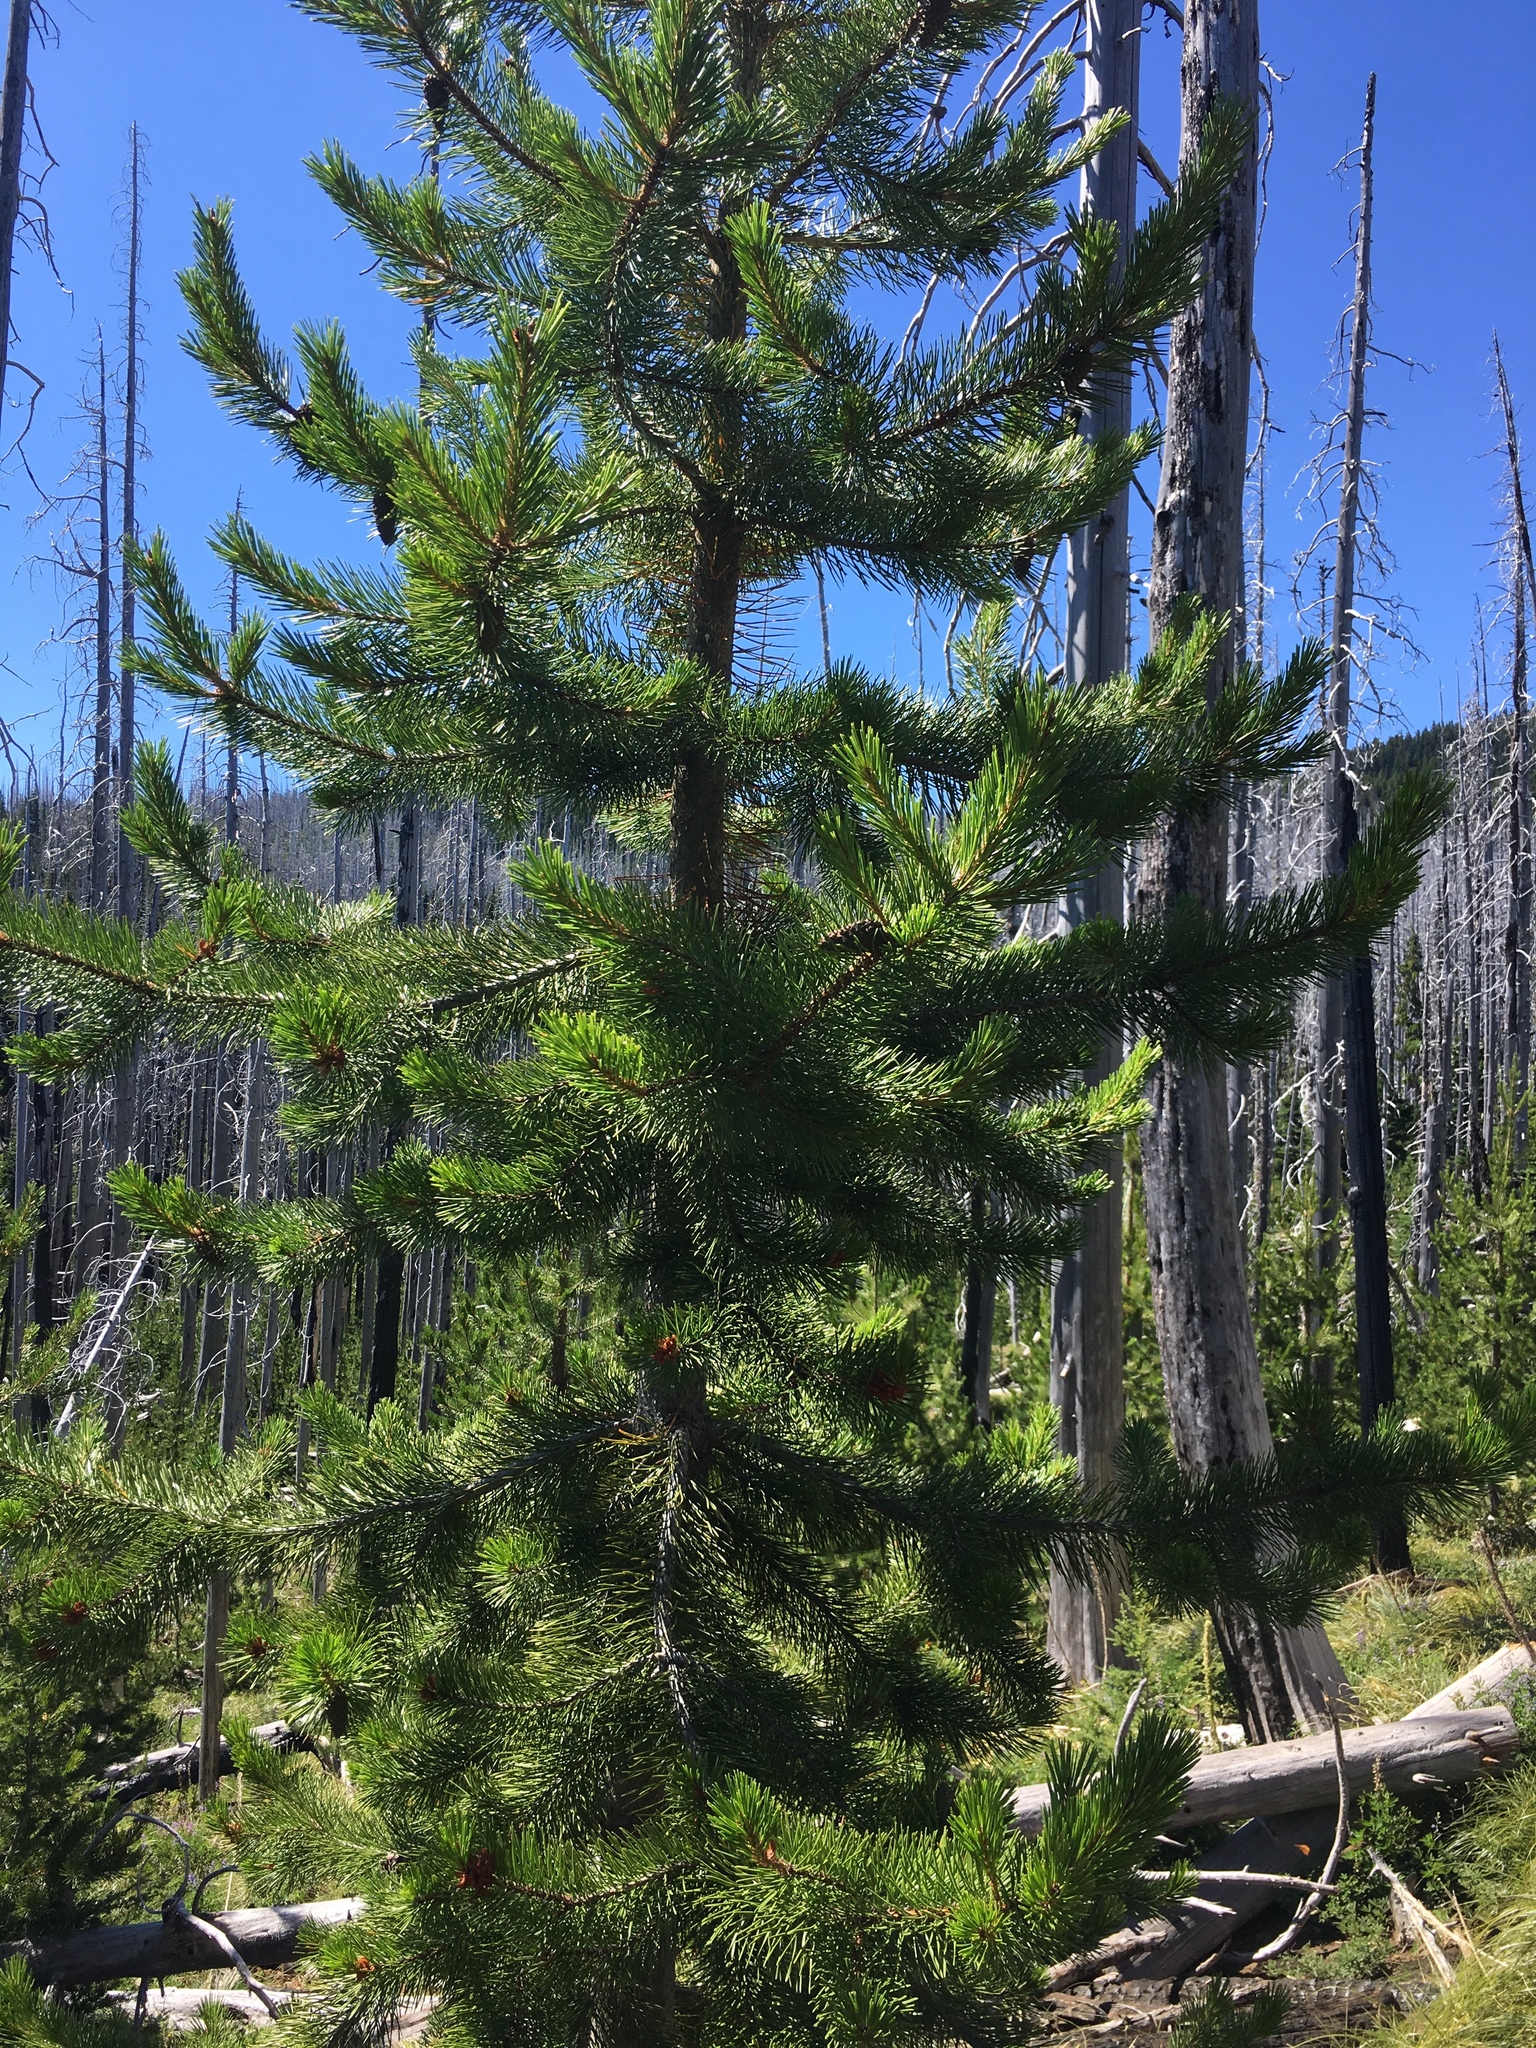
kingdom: Plantae
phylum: Tracheophyta
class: Pinopsida
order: Pinales
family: Pinaceae
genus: Pinus
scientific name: Pinus contorta
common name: Lodgepole pine
